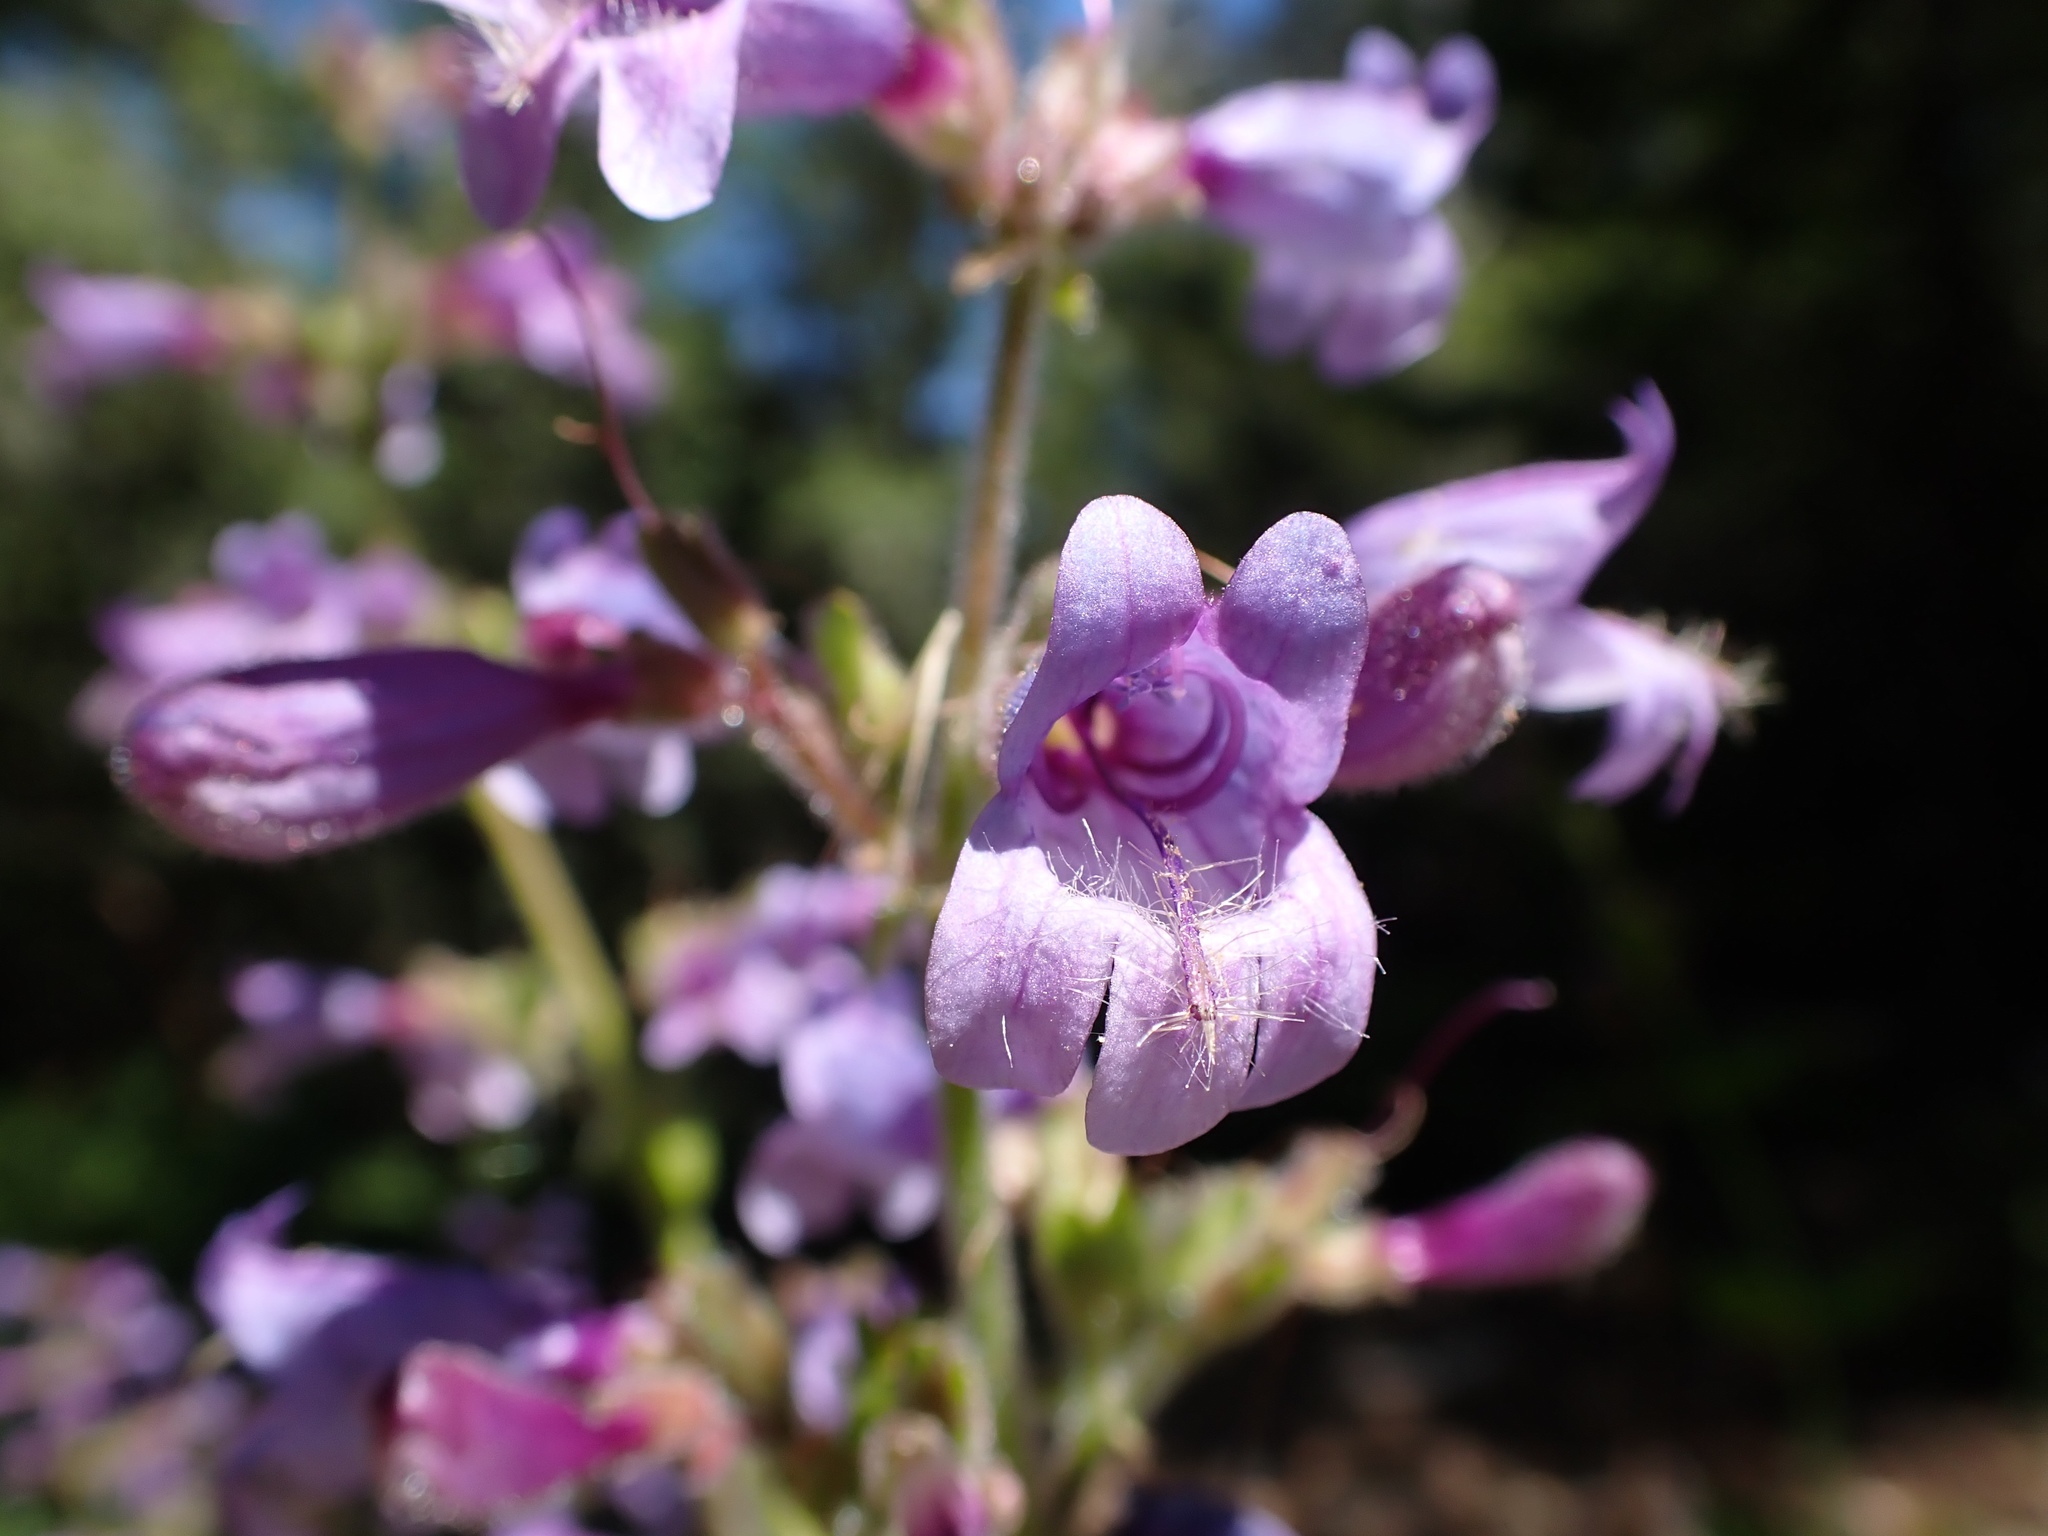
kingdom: Plantae
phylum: Tracheophyta
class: Magnoliopsida
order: Lamiales
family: Plantaginaceae
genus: Penstemon
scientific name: Penstemon rattanii
